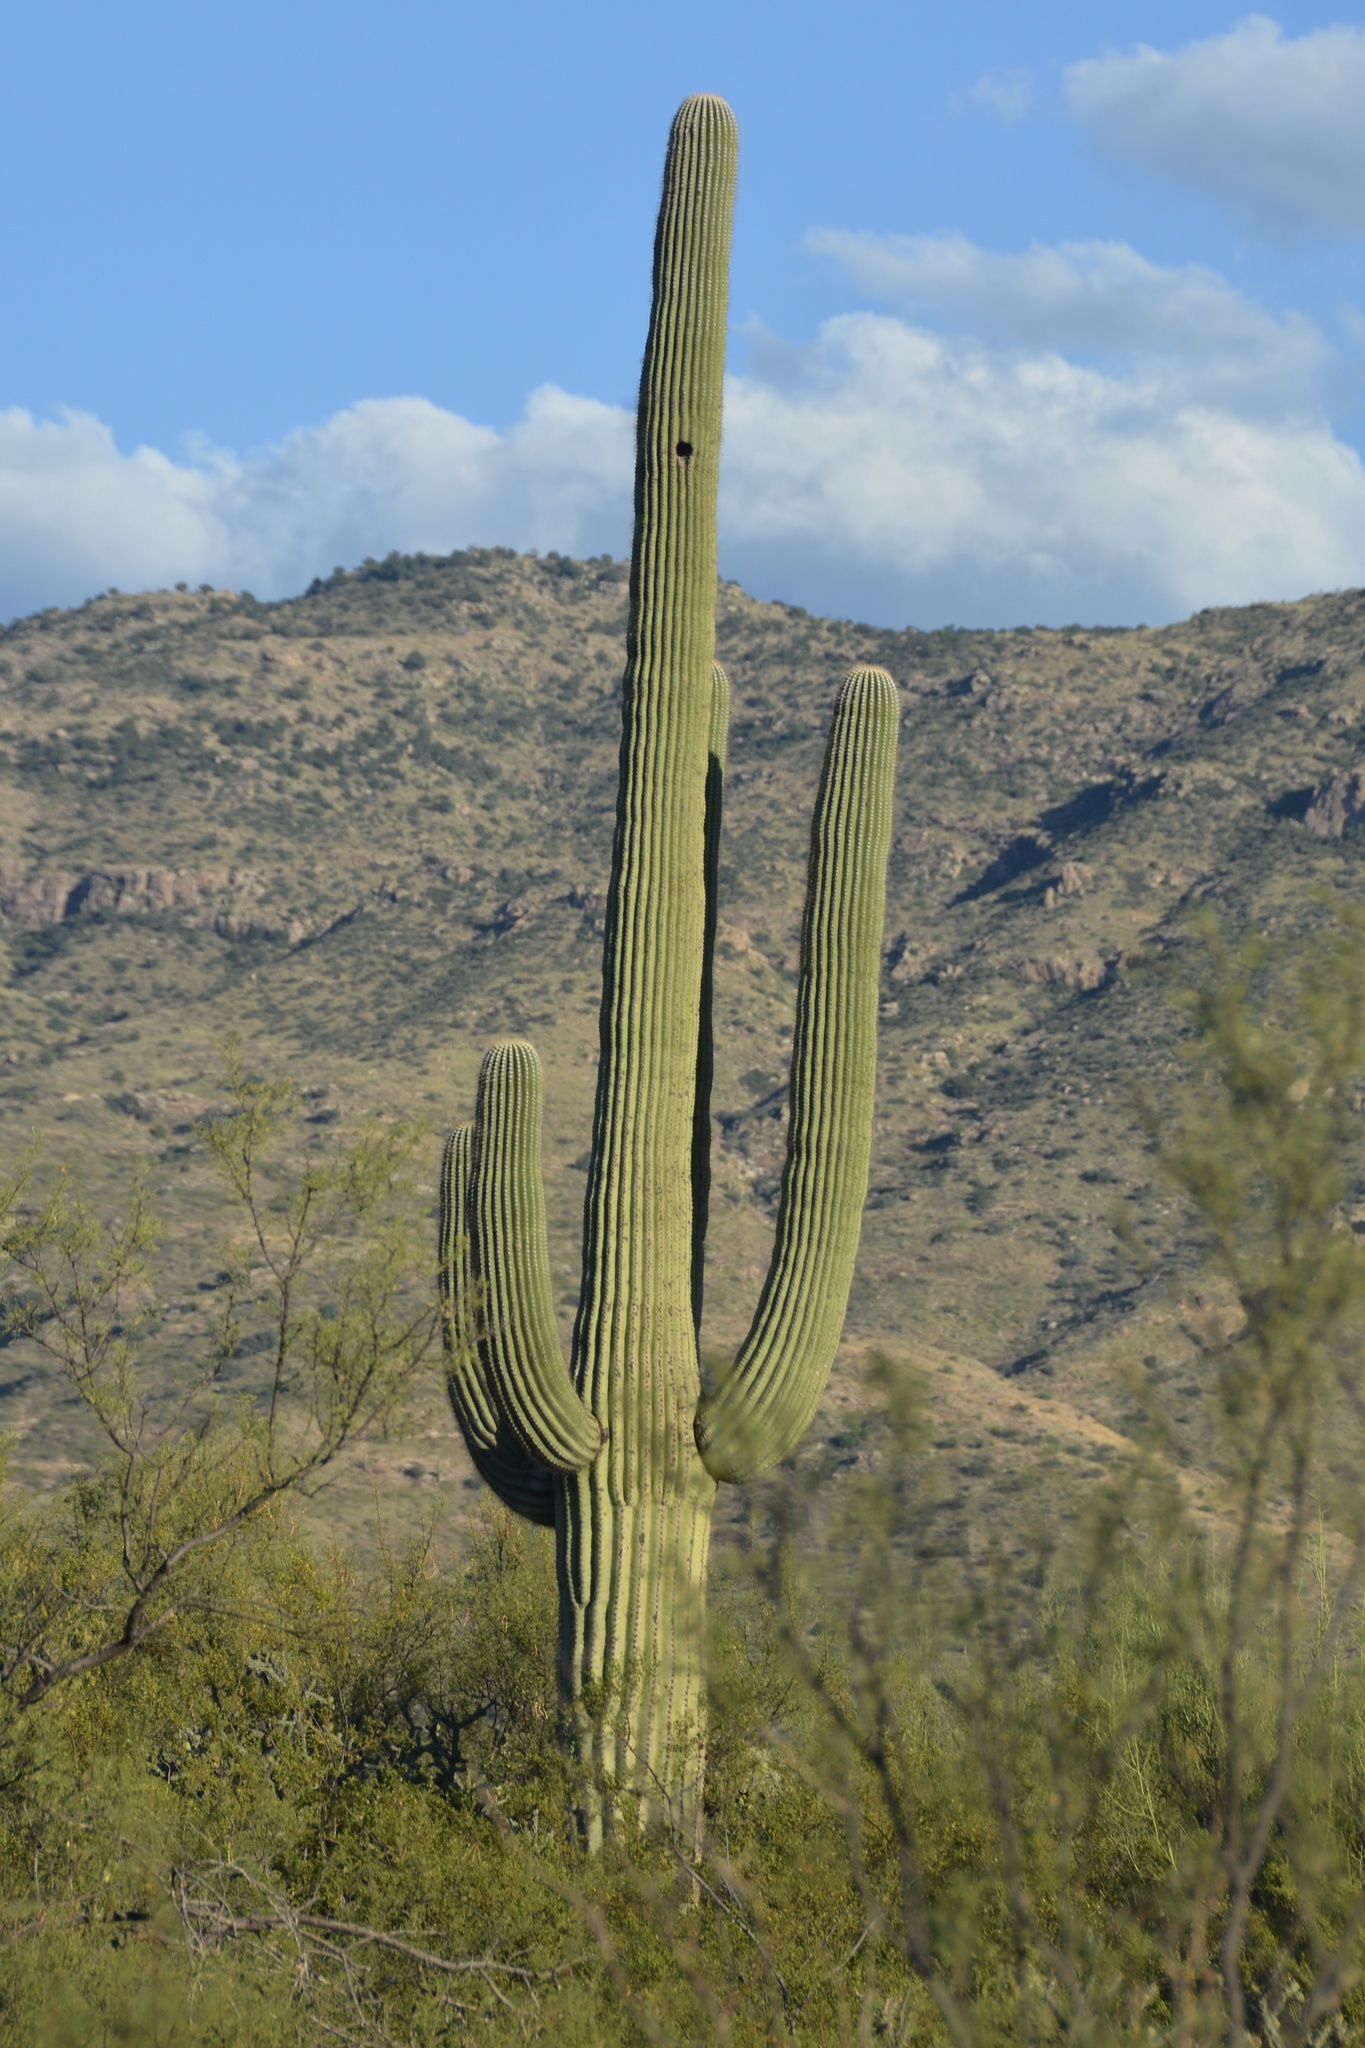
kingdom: Plantae
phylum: Tracheophyta
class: Magnoliopsida
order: Caryophyllales
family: Cactaceae
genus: Carnegiea
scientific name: Carnegiea gigantea
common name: Saguaro
